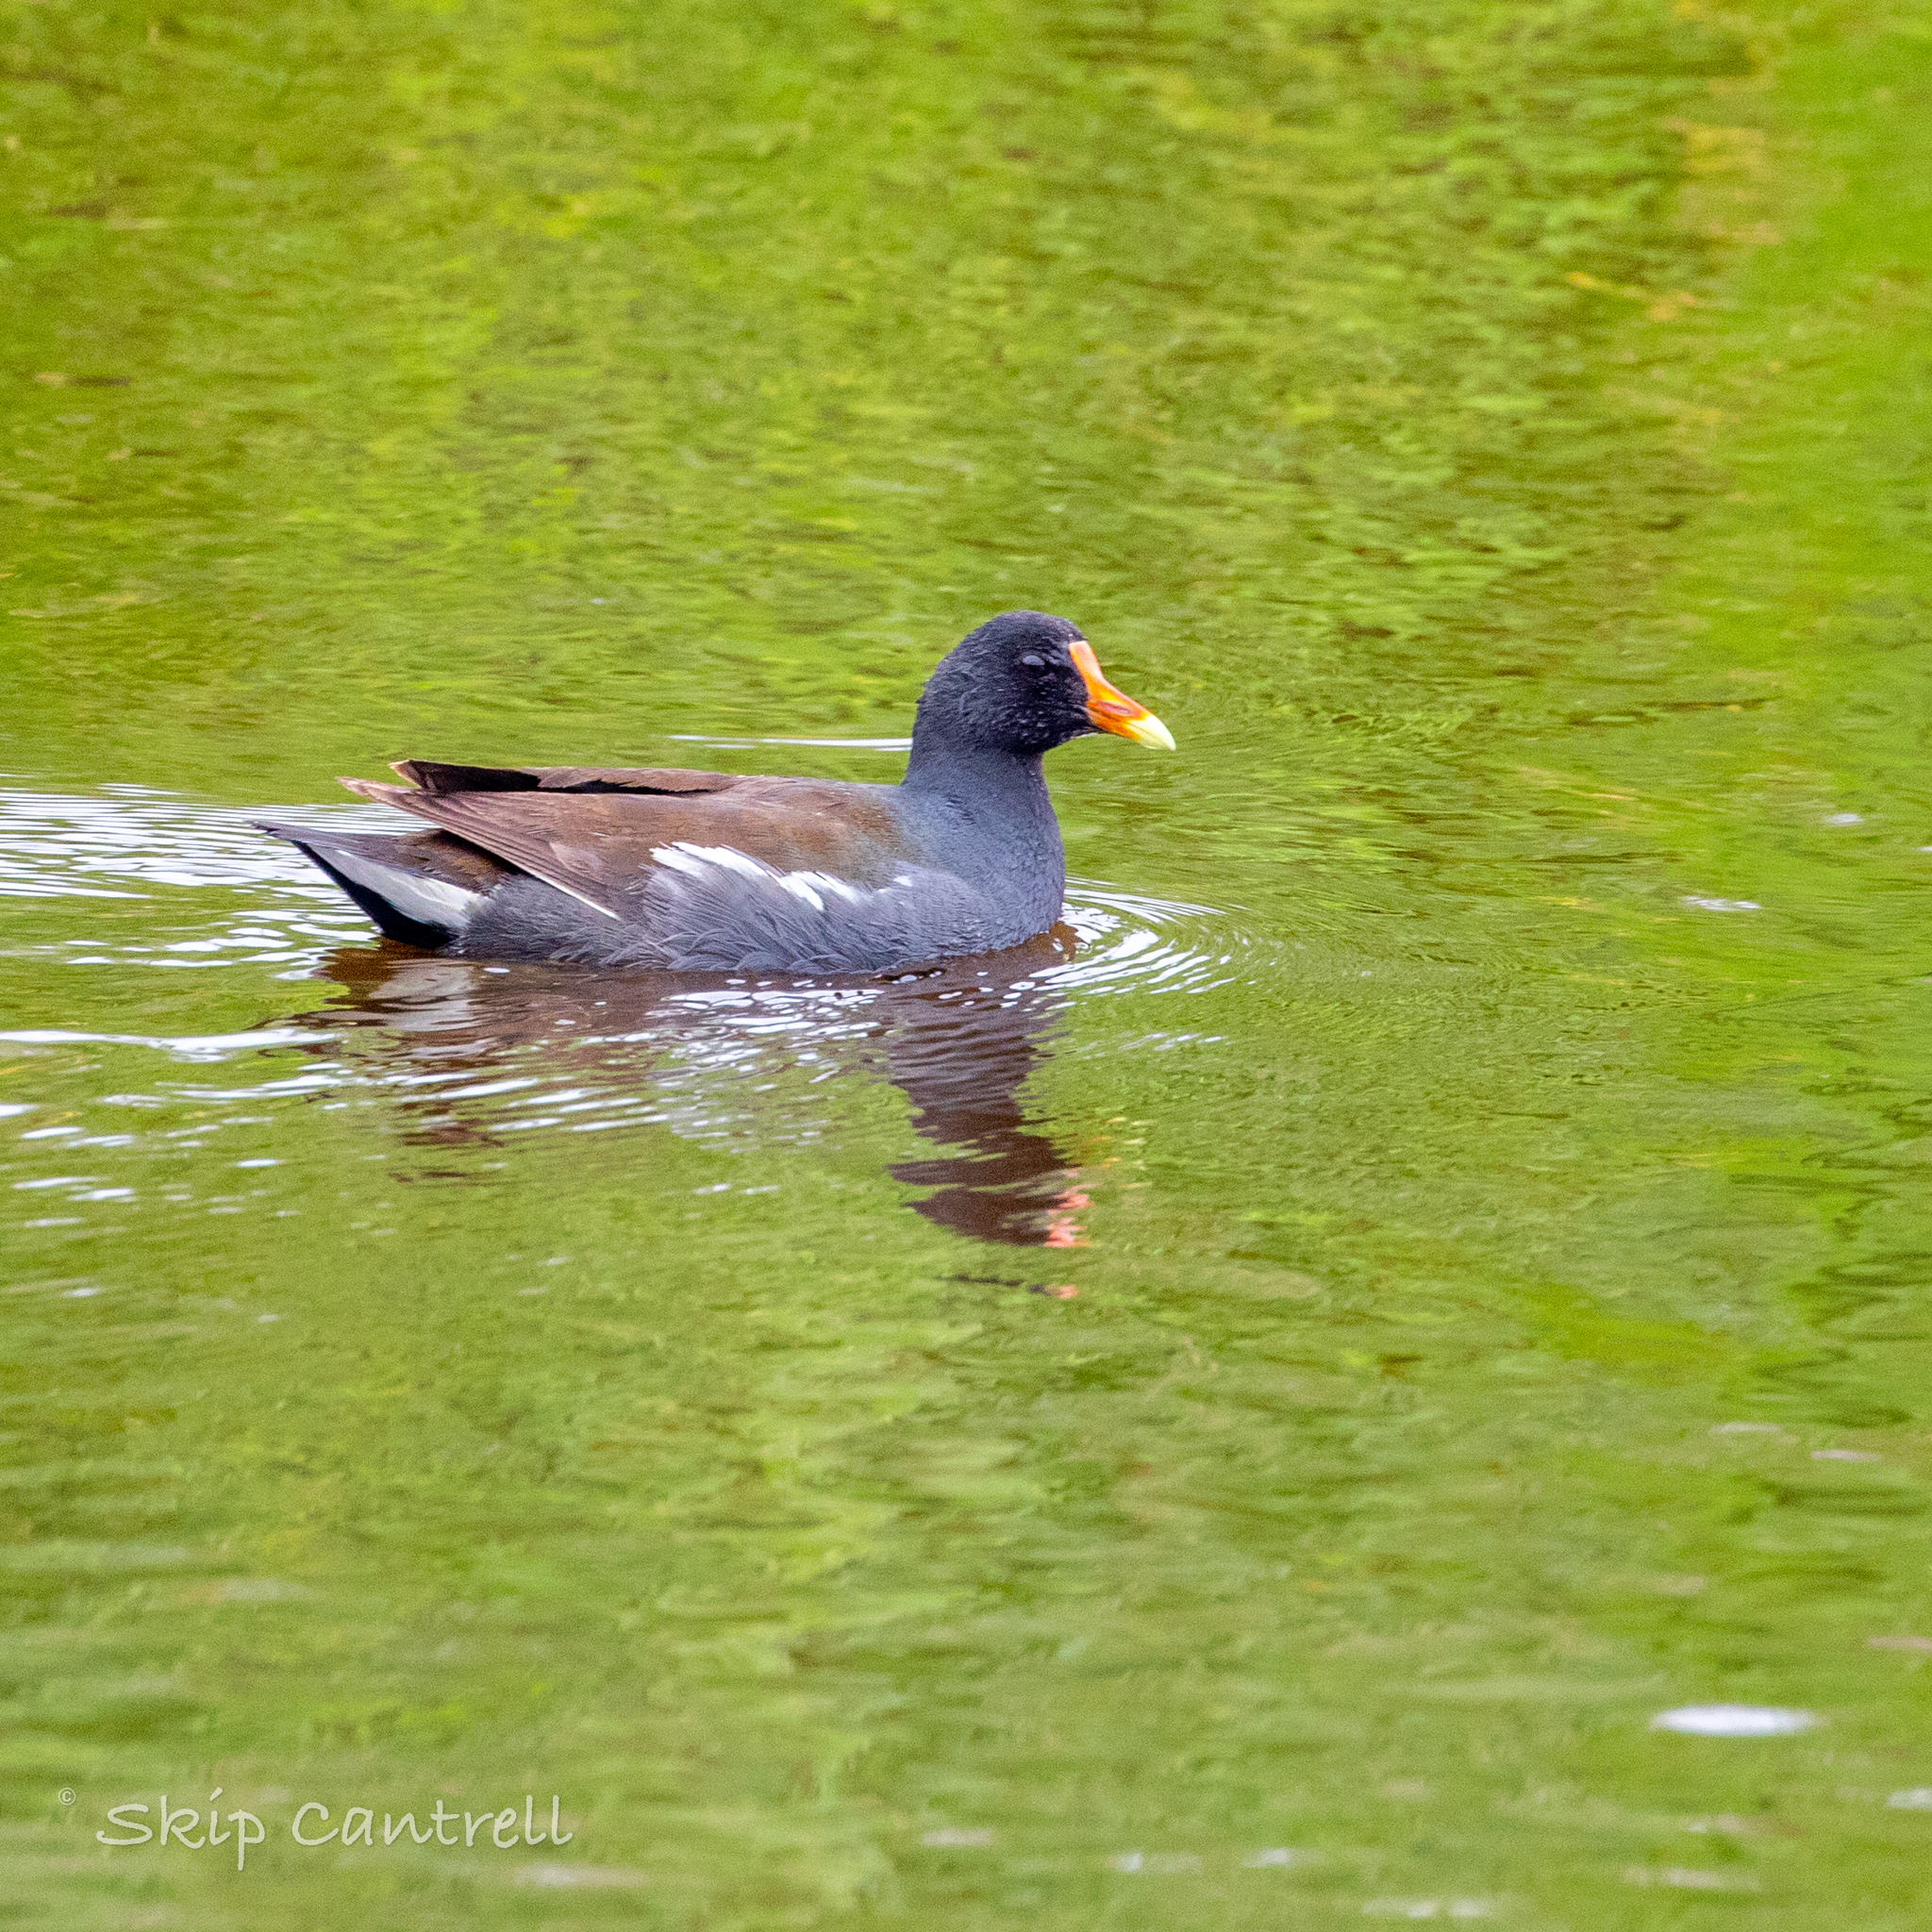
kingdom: Animalia
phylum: Chordata
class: Aves
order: Gruiformes
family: Rallidae
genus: Gallinula
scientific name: Gallinula chloropus
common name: Common moorhen
